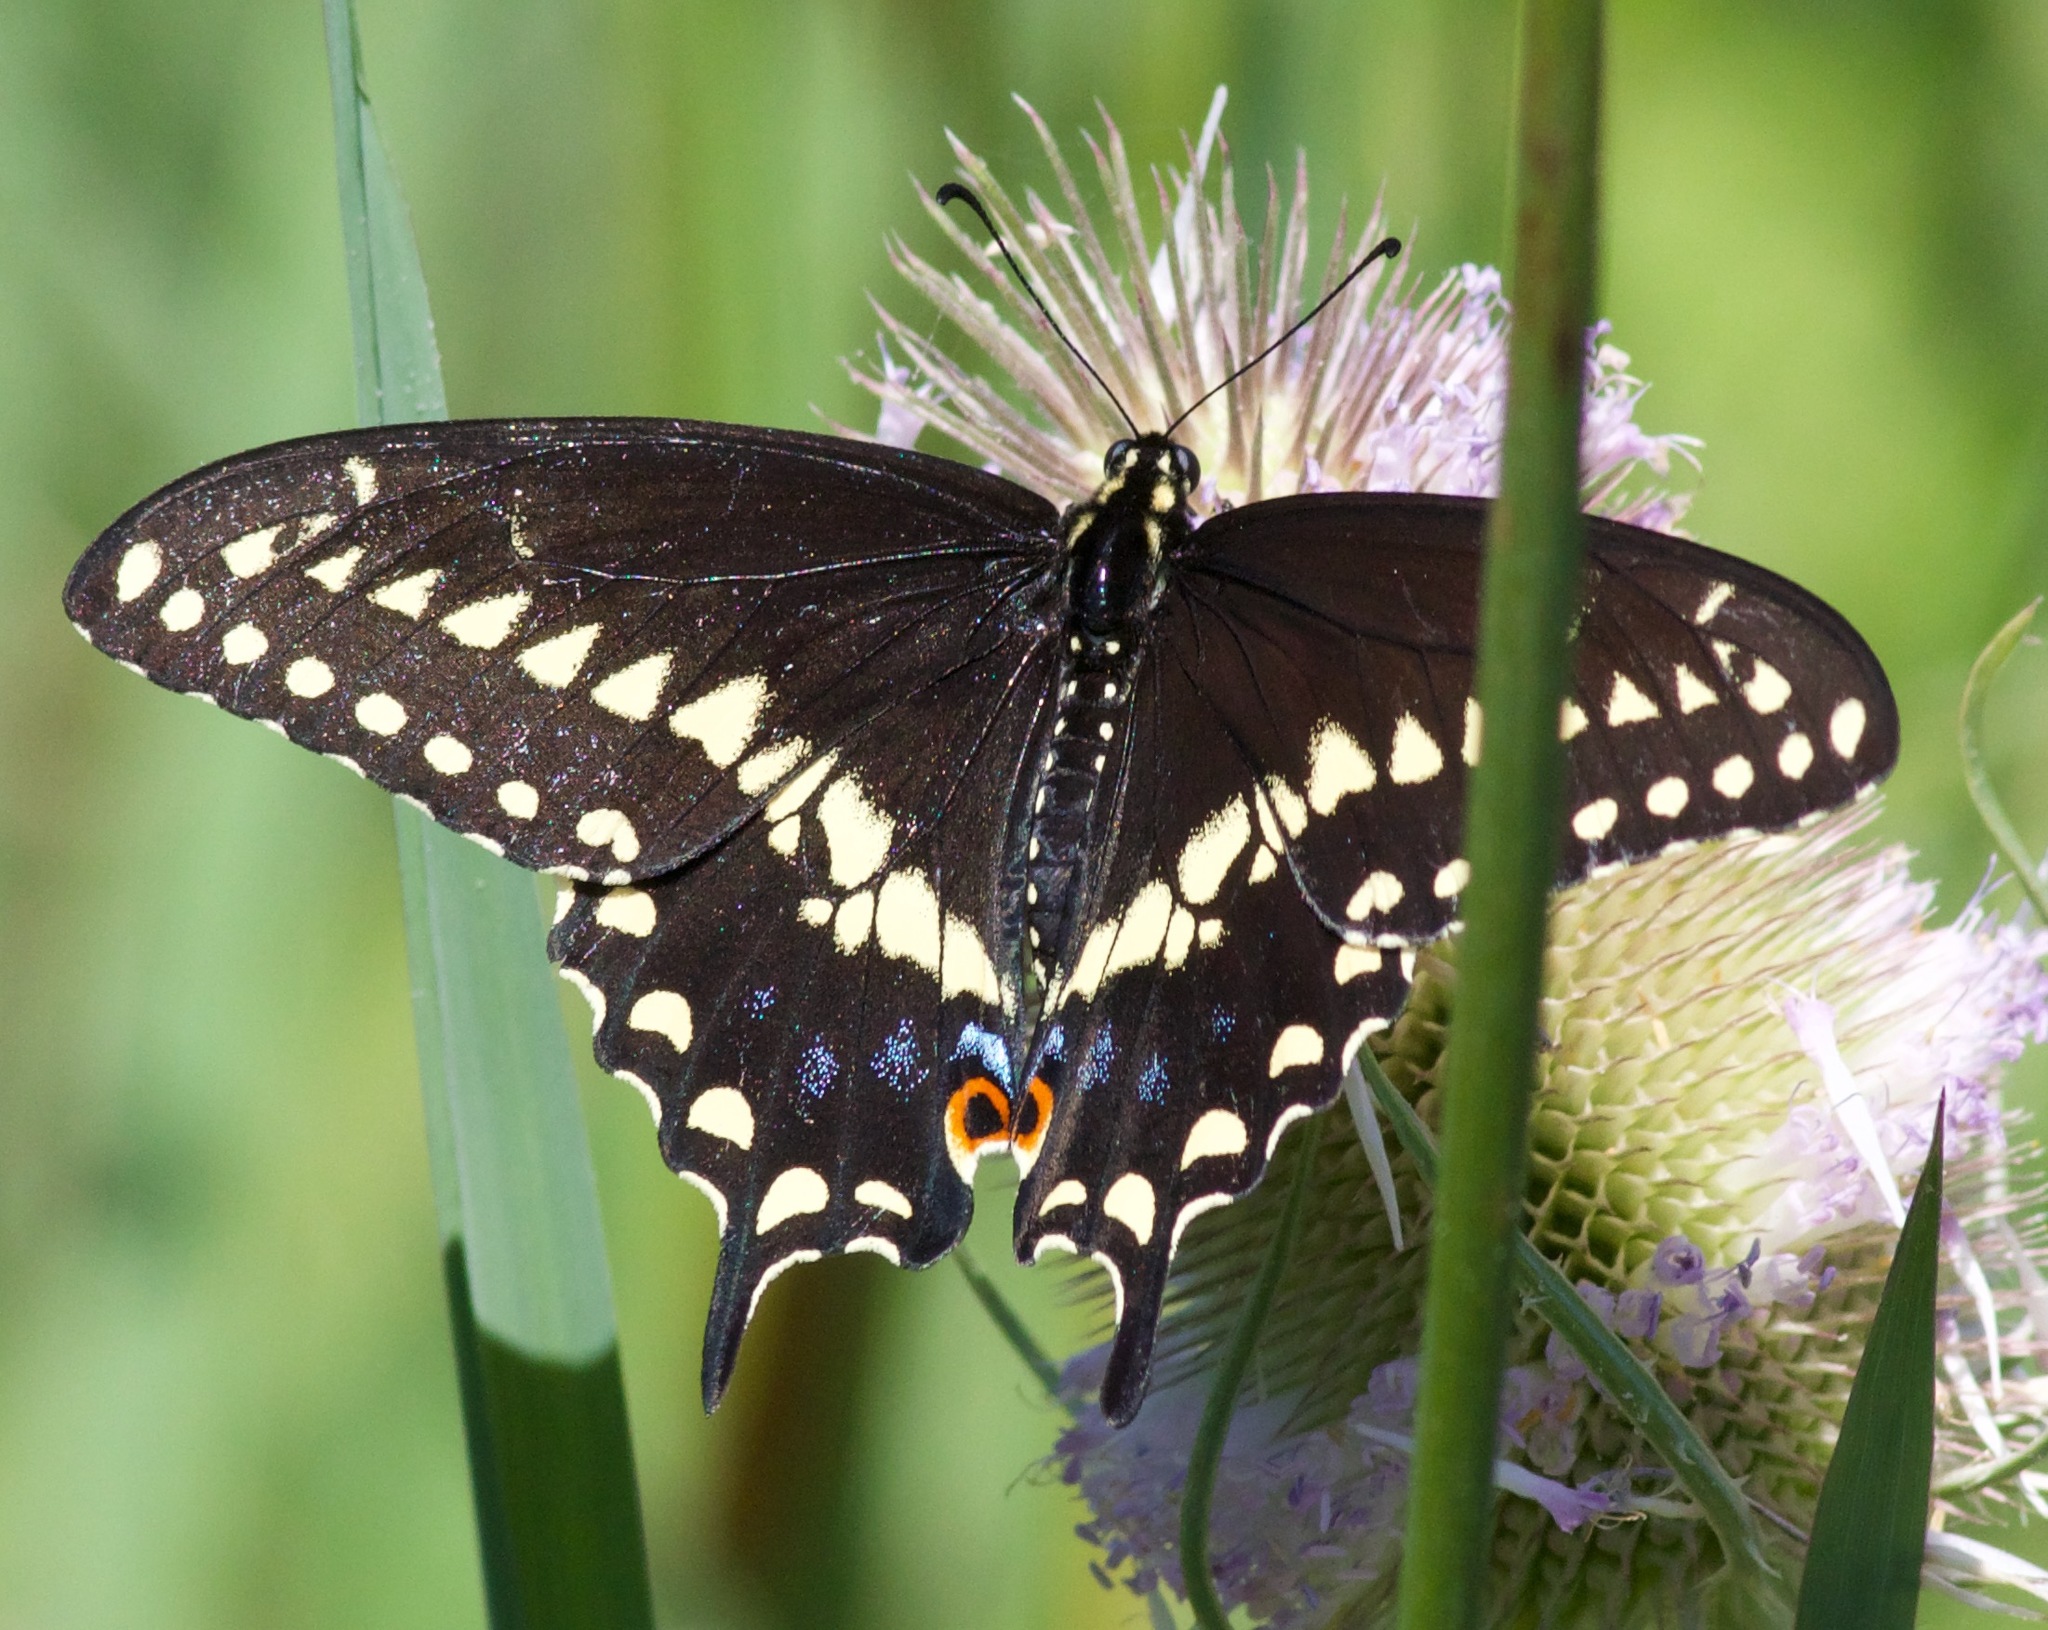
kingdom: Animalia
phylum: Arthropoda
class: Insecta
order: Lepidoptera
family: Papilionidae
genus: Papilio
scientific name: Papilio polyxenes
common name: Black swallowtail
